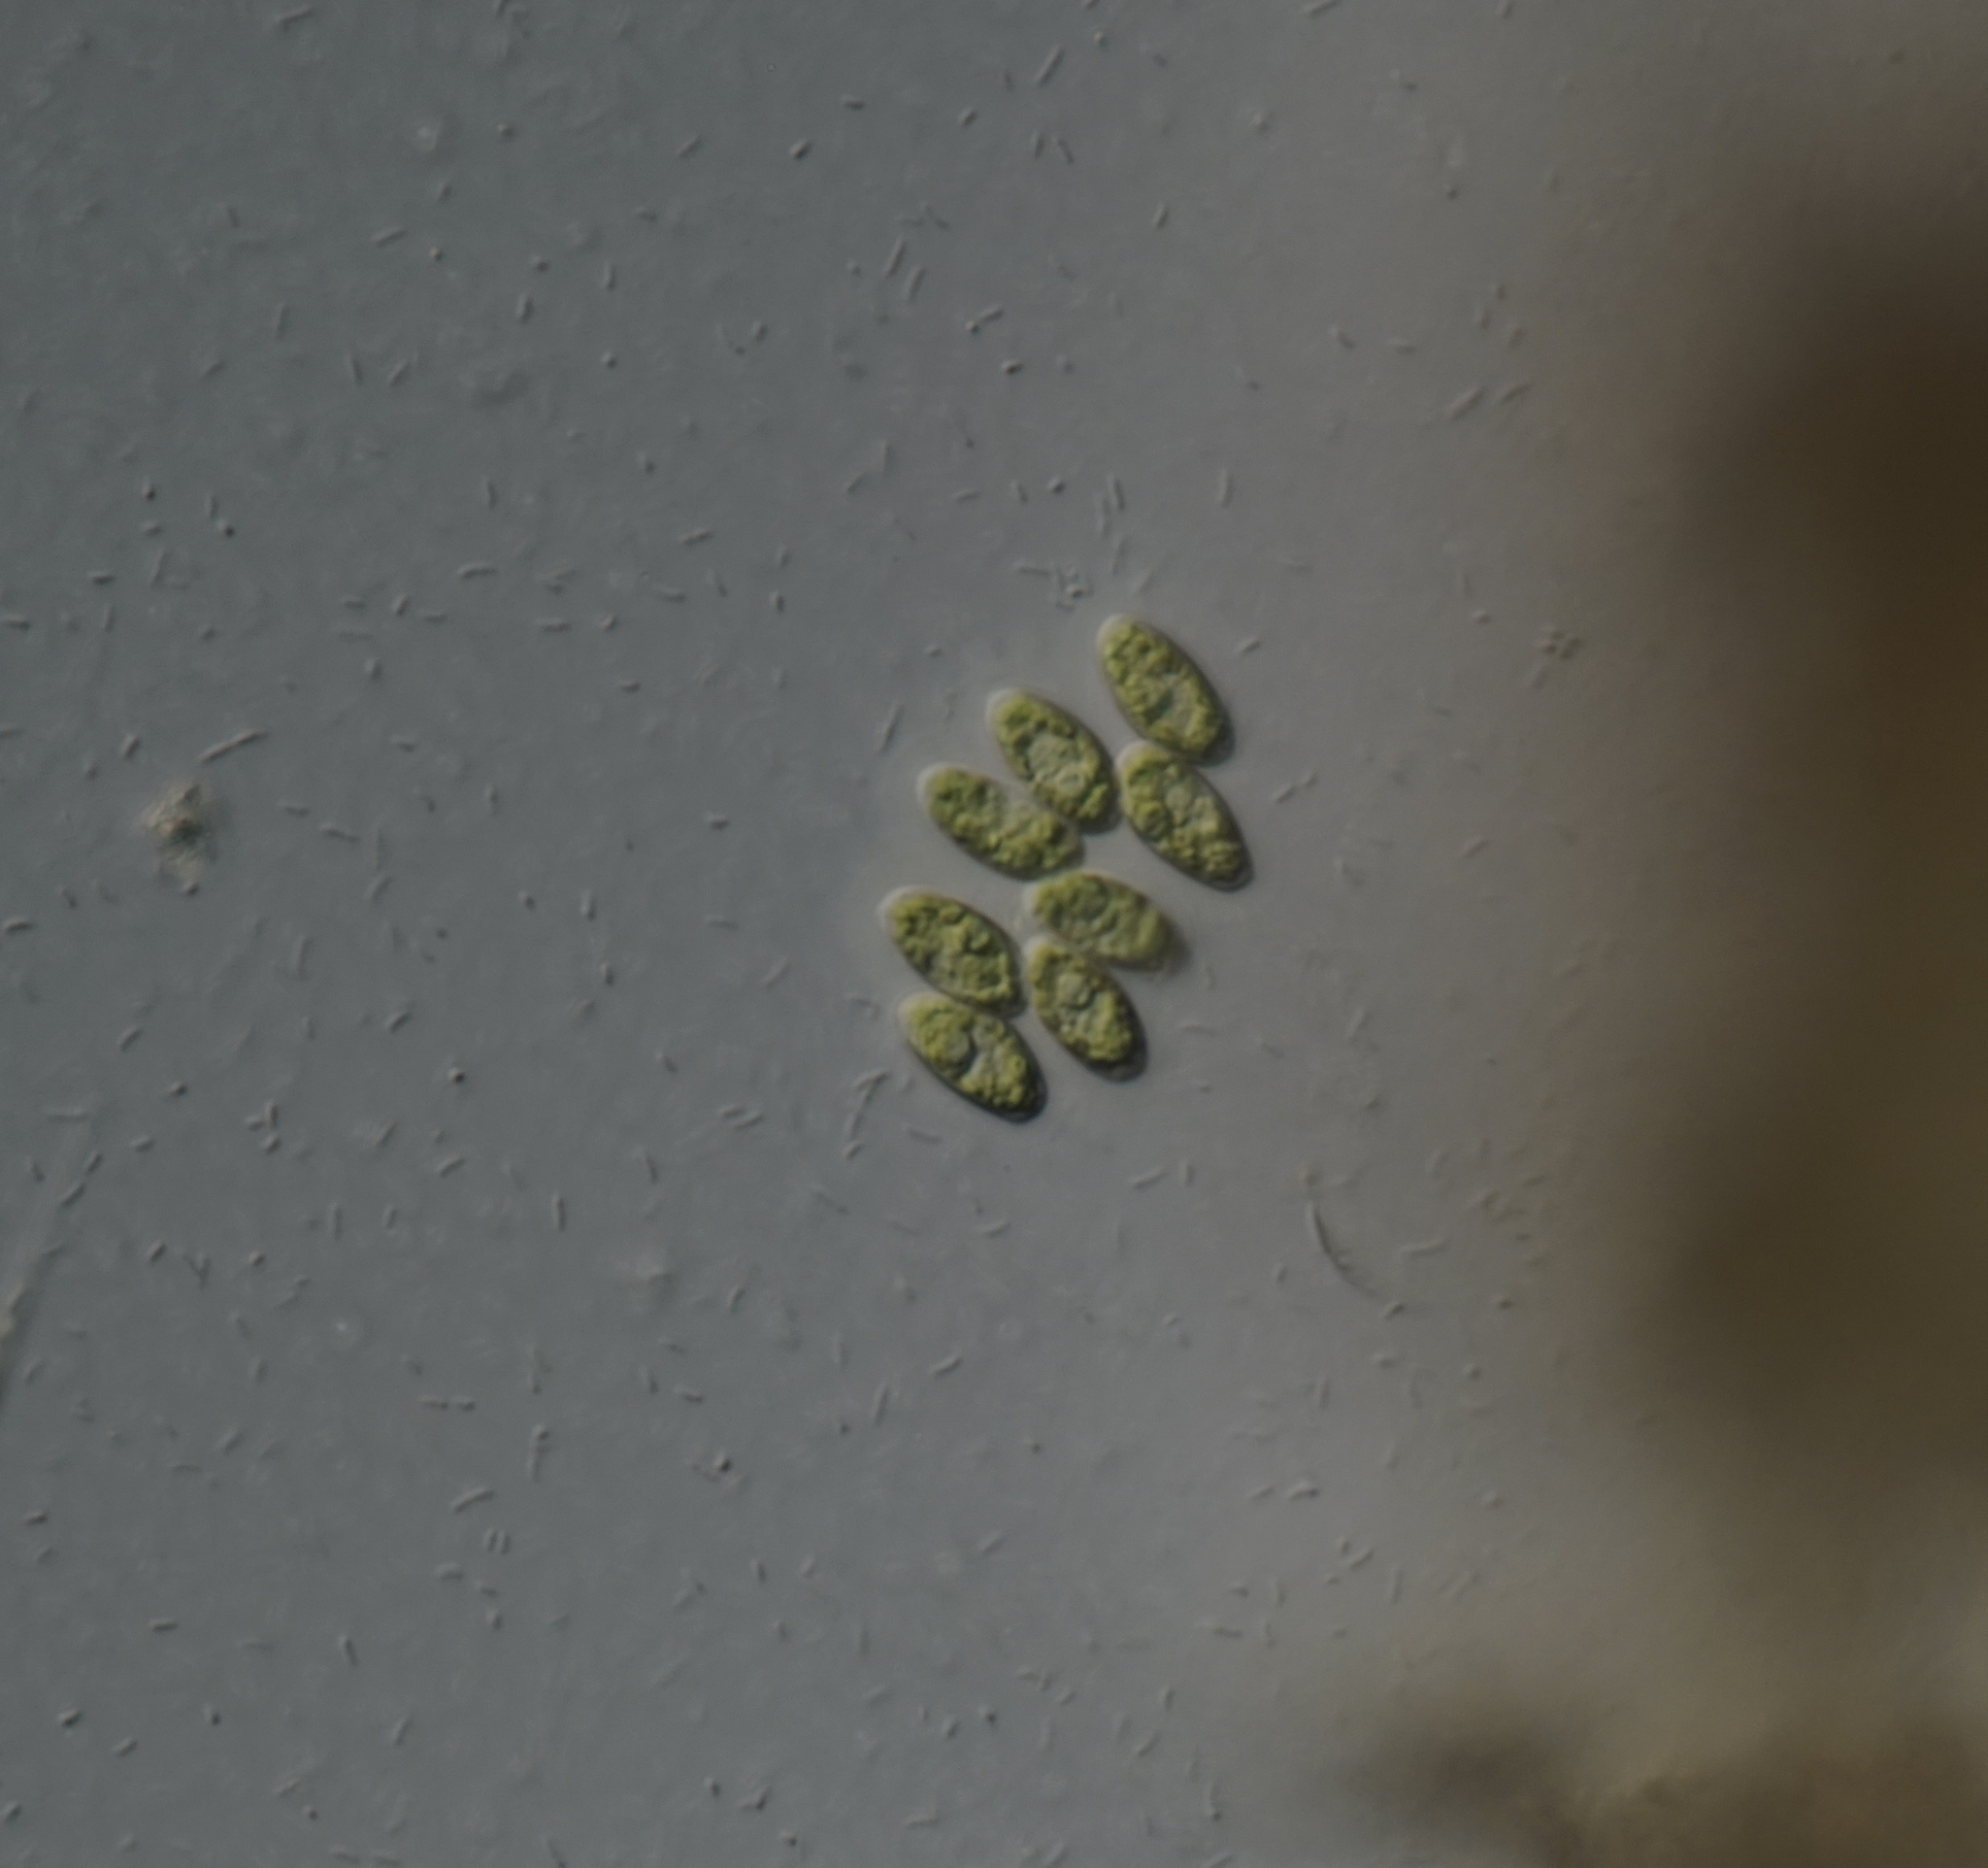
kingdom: Plantae
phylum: Chlorophyta
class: Chlorophyceae
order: Sphaeropleales
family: Scenedesmaceae
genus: Scenedesmus
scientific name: Scenedesmus obtusus
